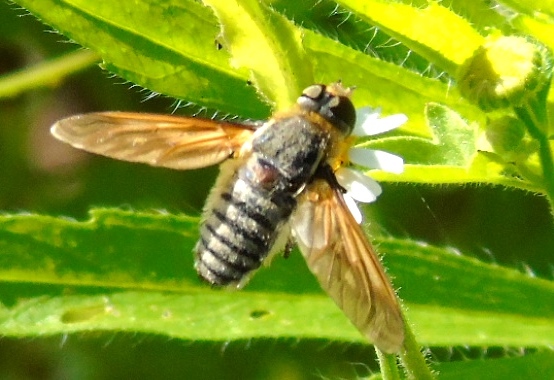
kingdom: Animalia
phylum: Arthropoda
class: Insecta
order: Diptera
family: Bombyliidae
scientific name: Bombyliidae
